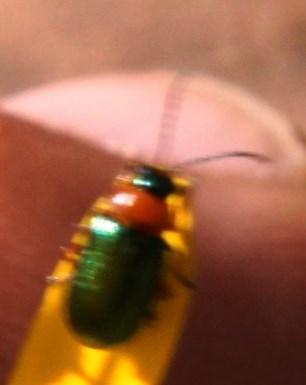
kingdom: Animalia
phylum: Arthropoda
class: Insecta
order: Coleoptera
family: Chrysomelidae
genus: Palaeophylia
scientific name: Palaeophylia
